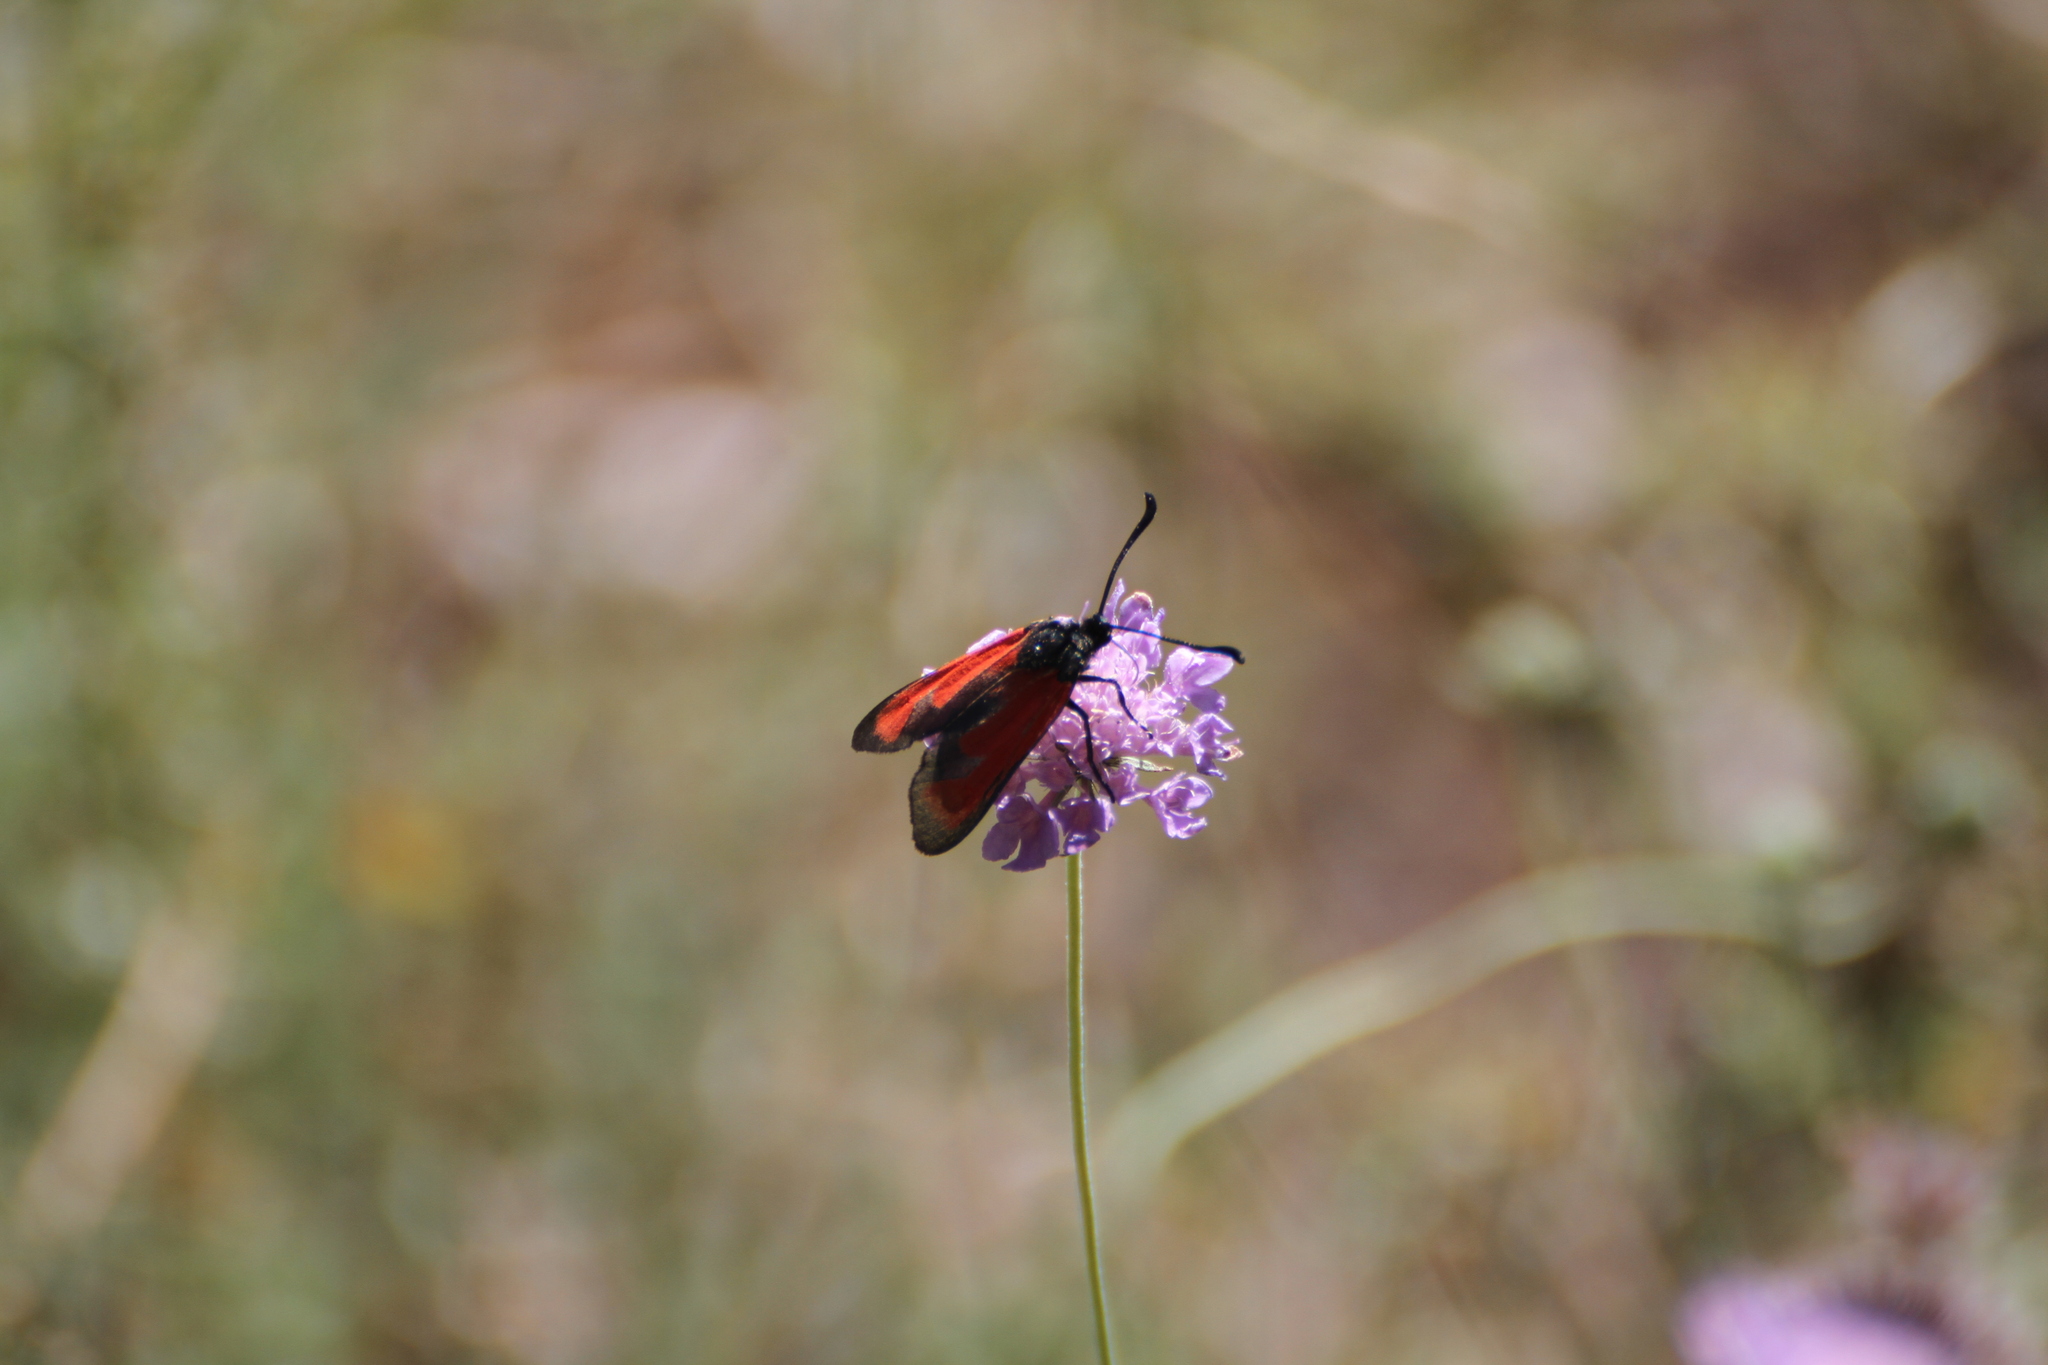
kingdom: Animalia
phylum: Arthropoda
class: Insecta
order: Lepidoptera
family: Zygaenidae
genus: Zygaena
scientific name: Zygaena erythrus
